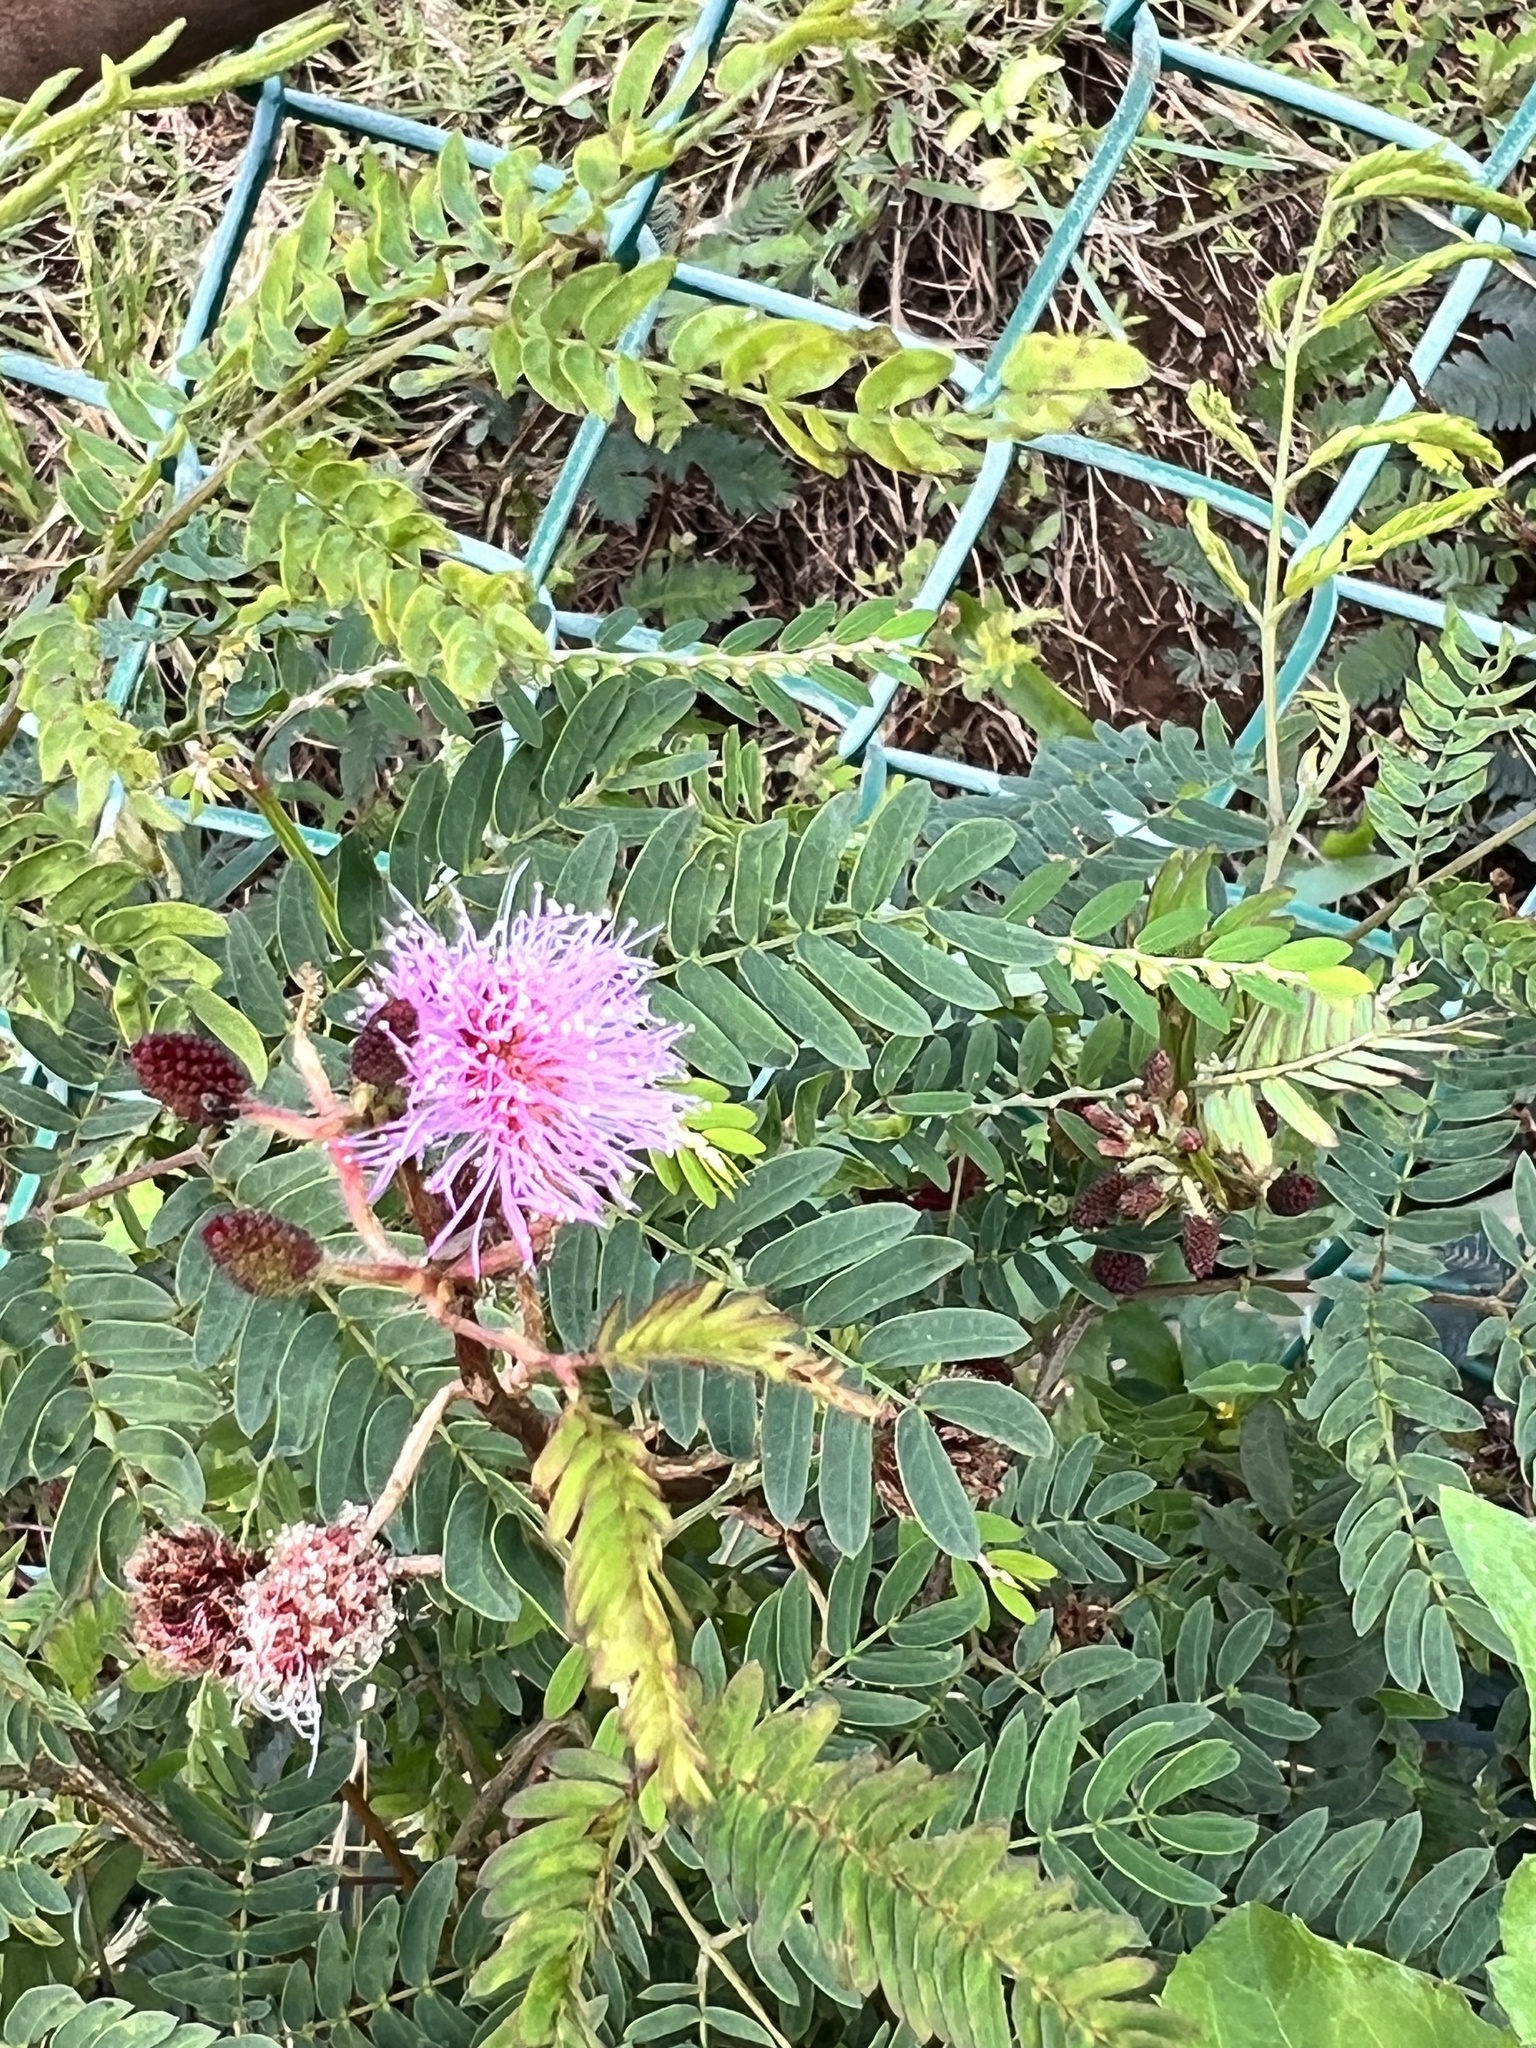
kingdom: Plantae
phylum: Tracheophyta
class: Magnoliopsida
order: Fabales
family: Fabaceae
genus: Mimosa
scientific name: Mimosa pudica
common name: Sensitive plant
